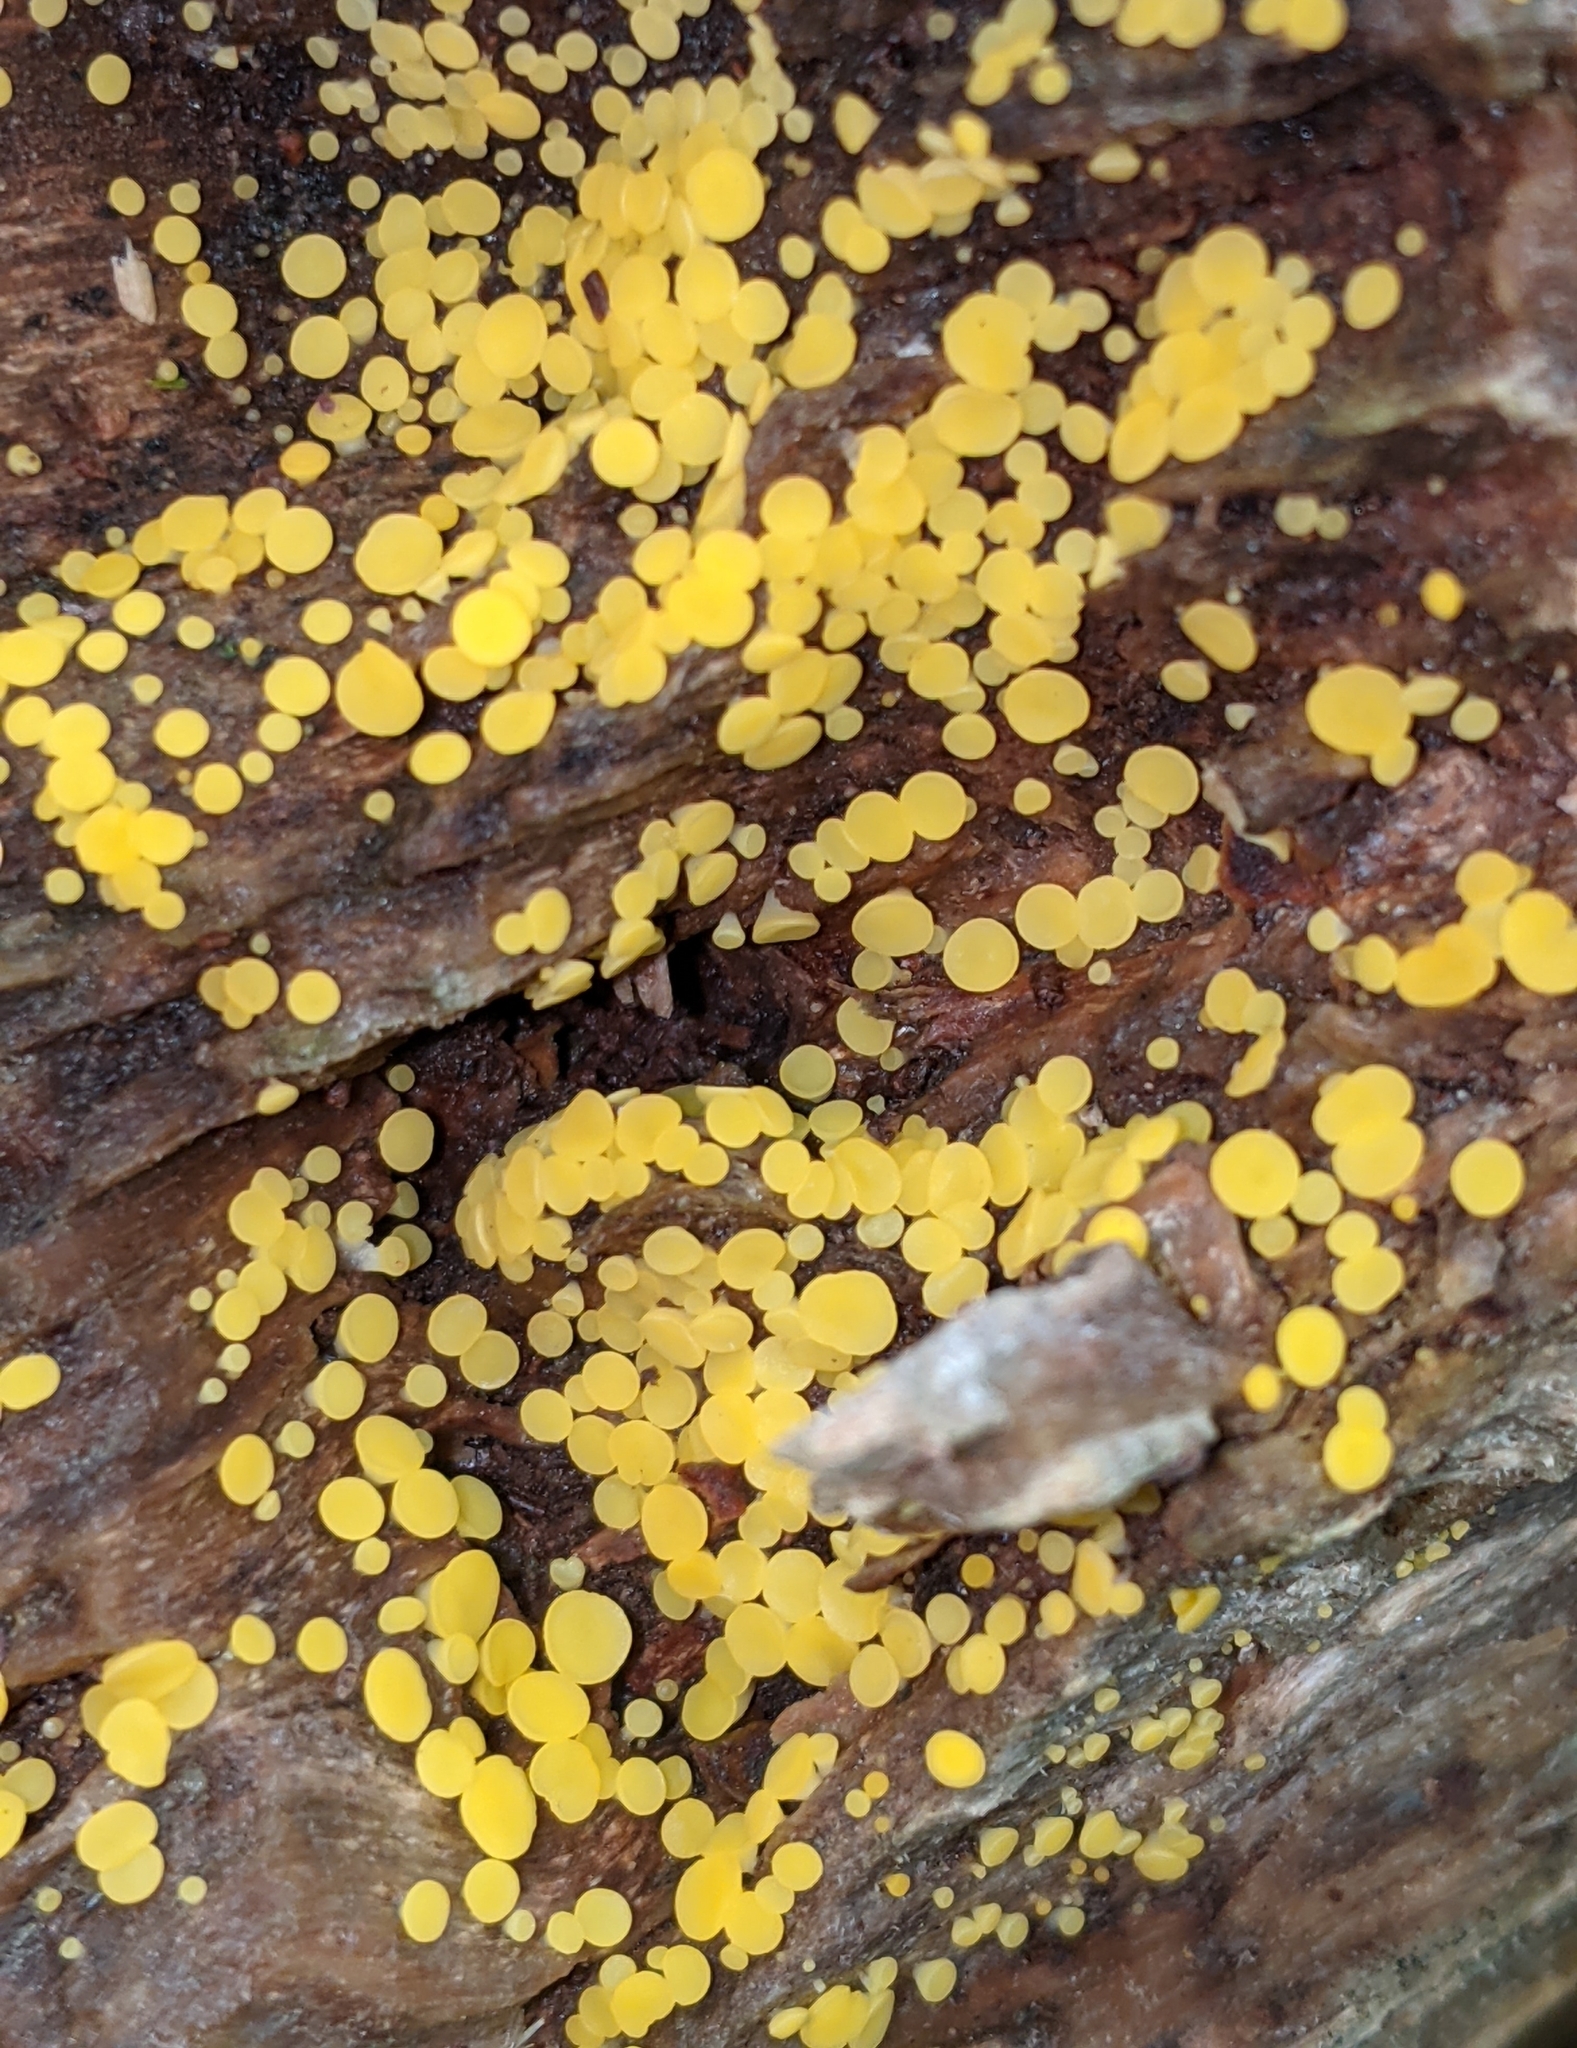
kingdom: Fungi
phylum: Ascomycota
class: Leotiomycetes
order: Helotiales
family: Pezizellaceae
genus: Calycina
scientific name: Calycina citrina
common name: Yellow fairy cups
